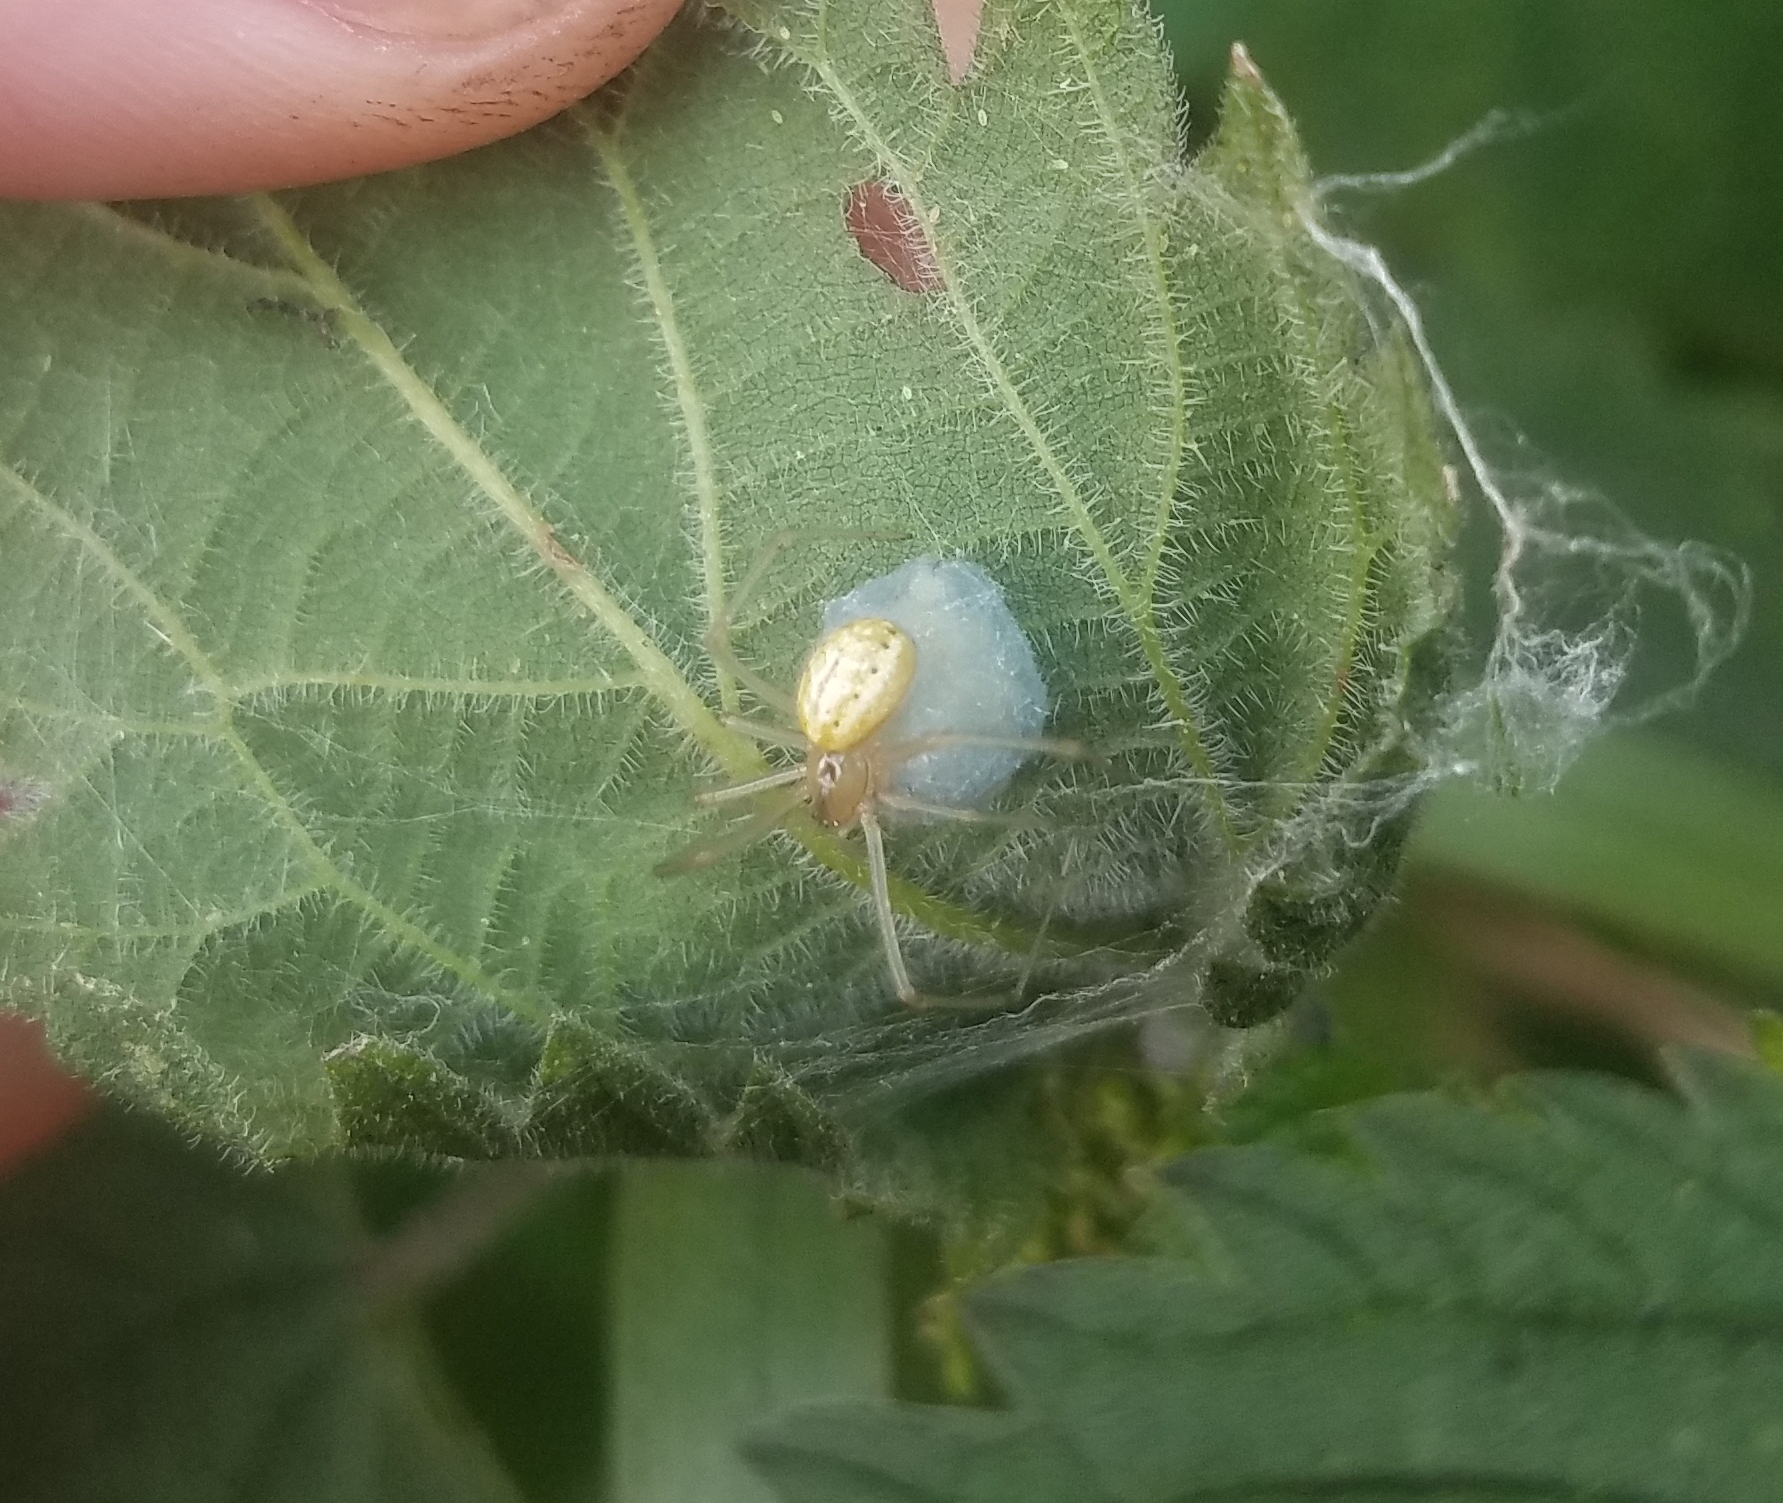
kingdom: Animalia
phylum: Arthropoda
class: Arachnida
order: Araneae
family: Theridiidae
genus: Enoplognatha
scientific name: Enoplognatha ovata
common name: Common candy-striped spider
